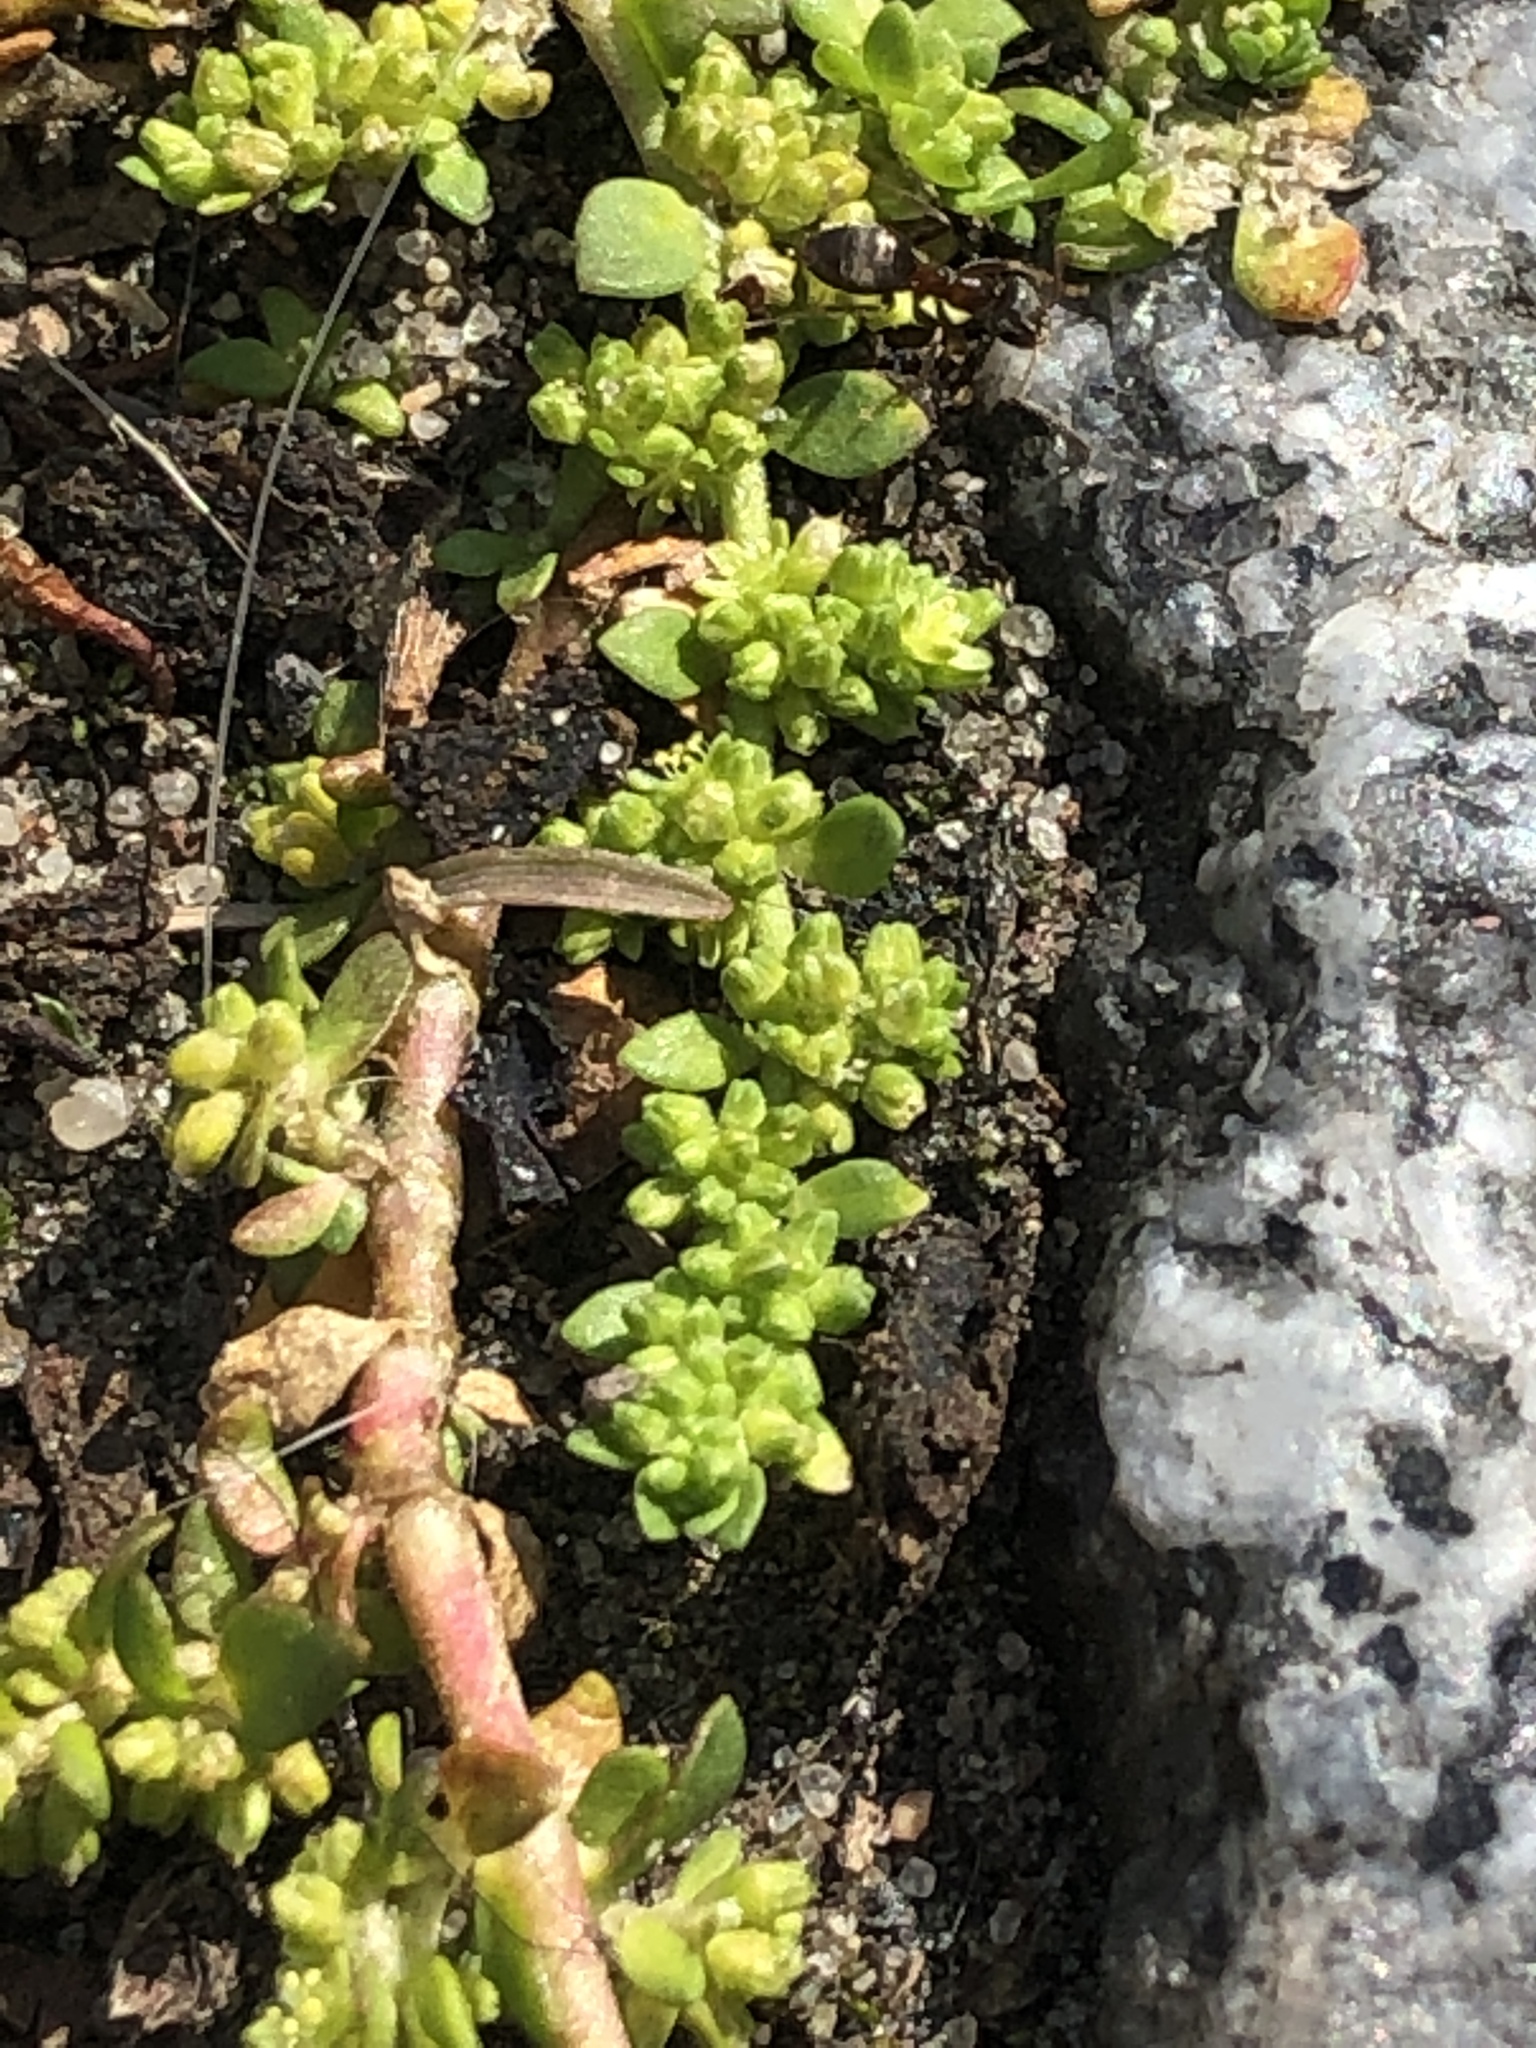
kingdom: Plantae
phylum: Tracheophyta
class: Magnoliopsida
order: Caryophyllales
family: Caryophyllaceae
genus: Herniaria
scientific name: Herniaria glabra
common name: Smooth rupturewort
